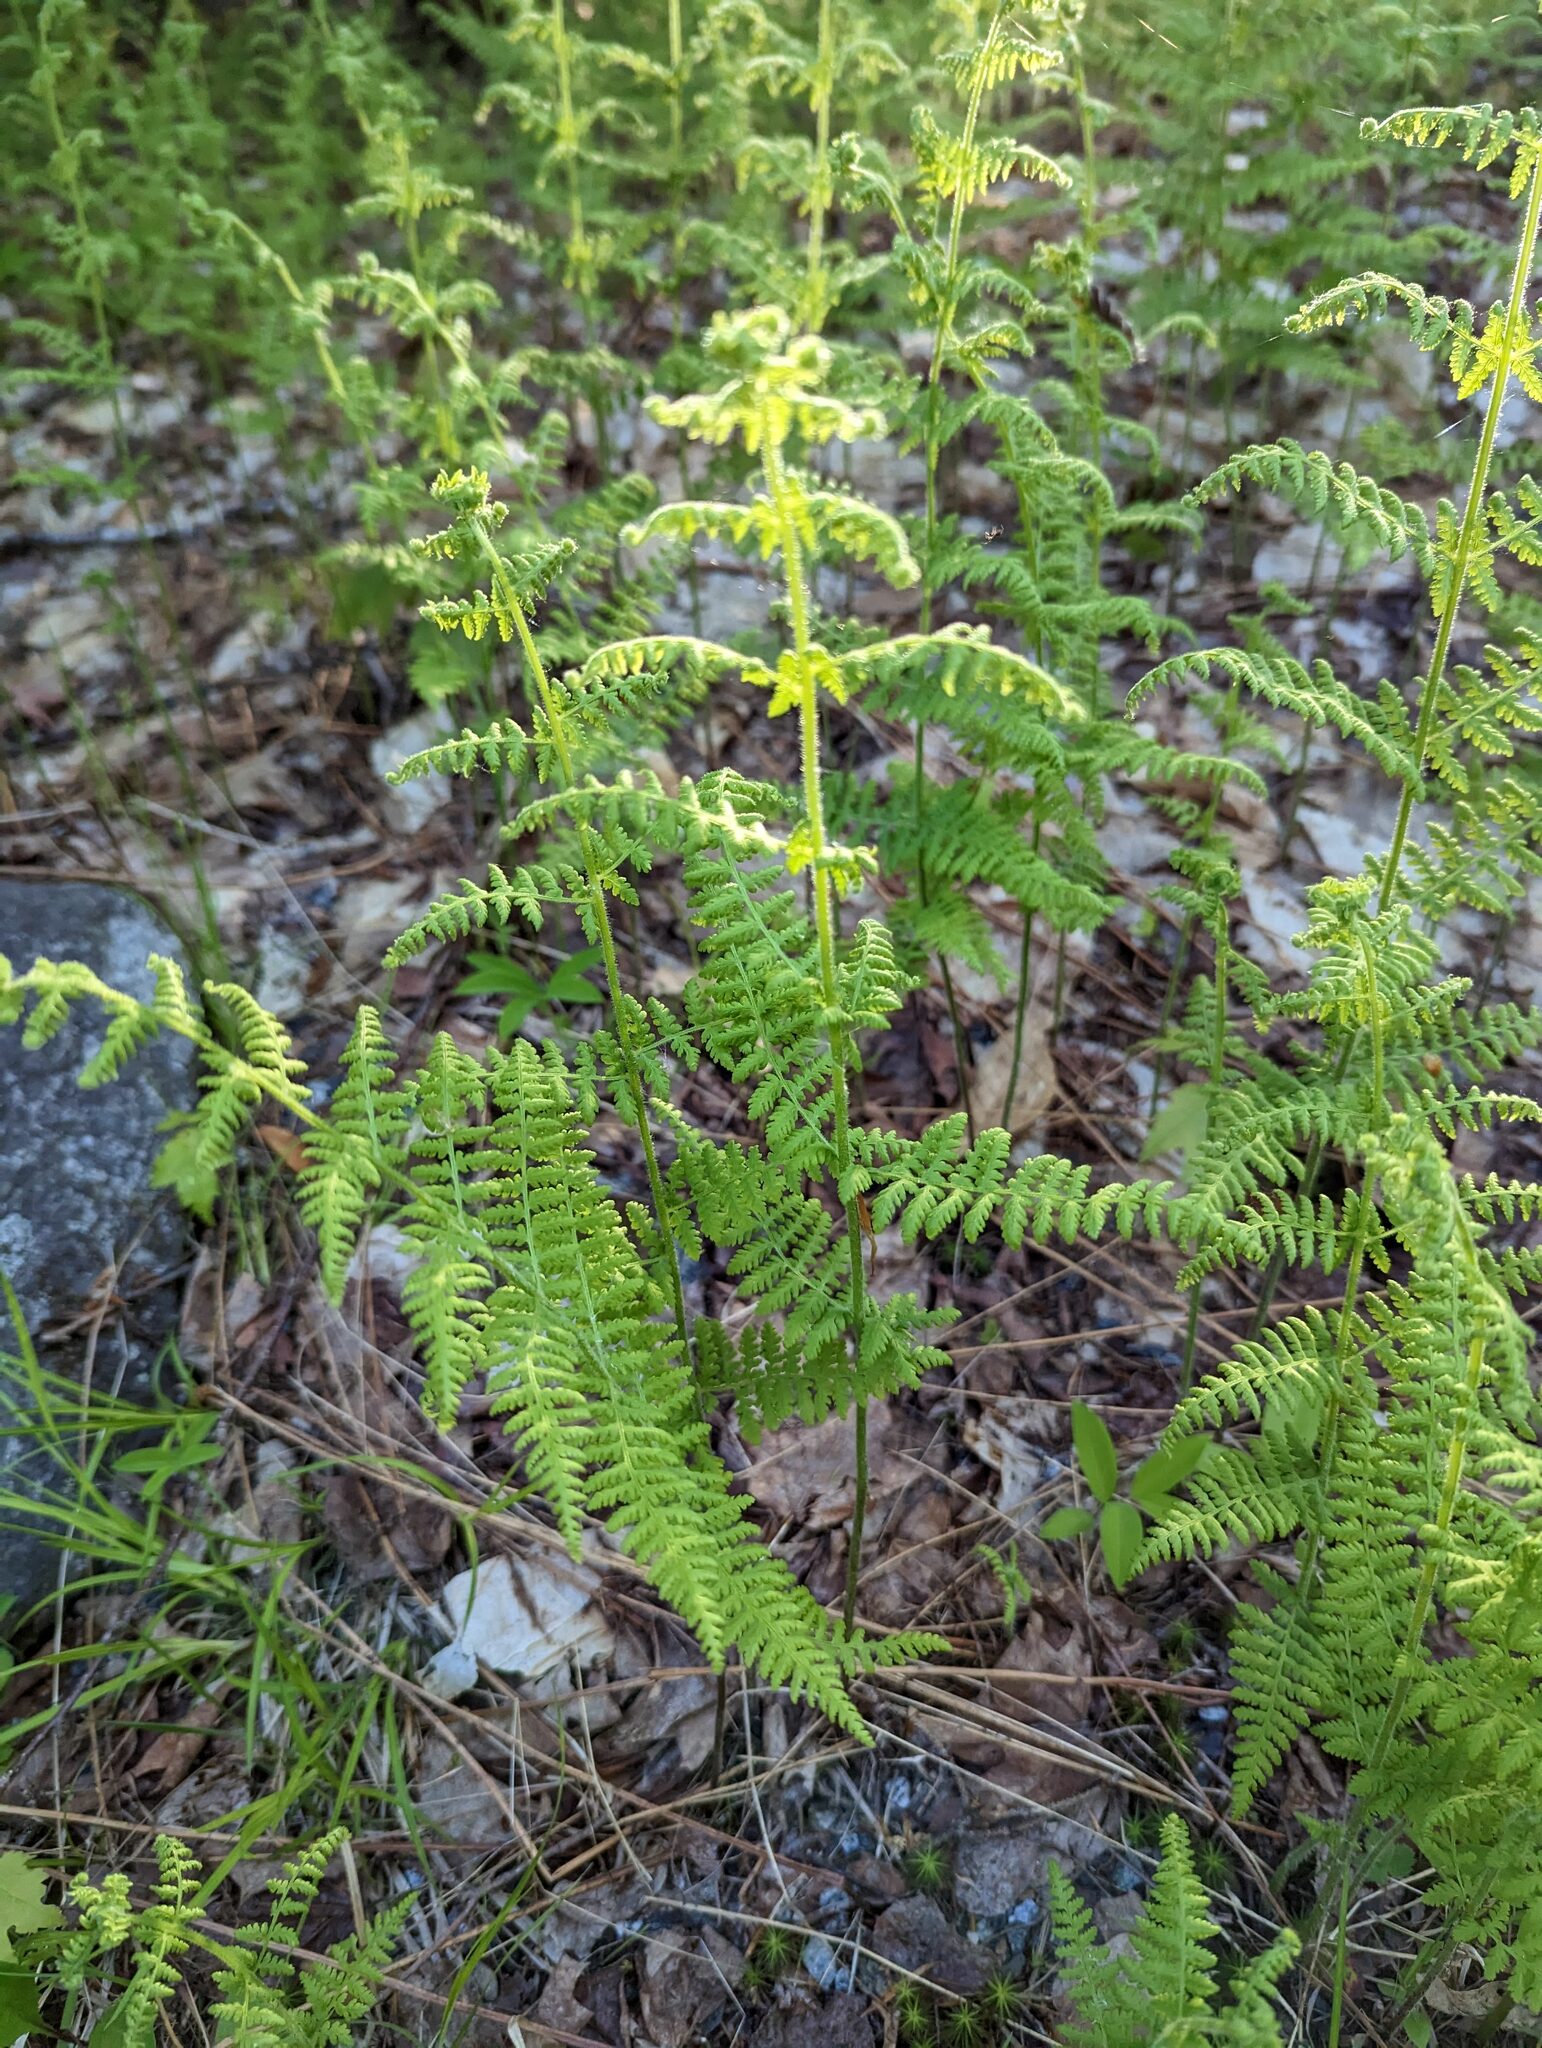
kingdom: Plantae
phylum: Tracheophyta
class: Polypodiopsida
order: Polypodiales
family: Dennstaedtiaceae
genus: Sitobolium
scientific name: Sitobolium punctilobum
